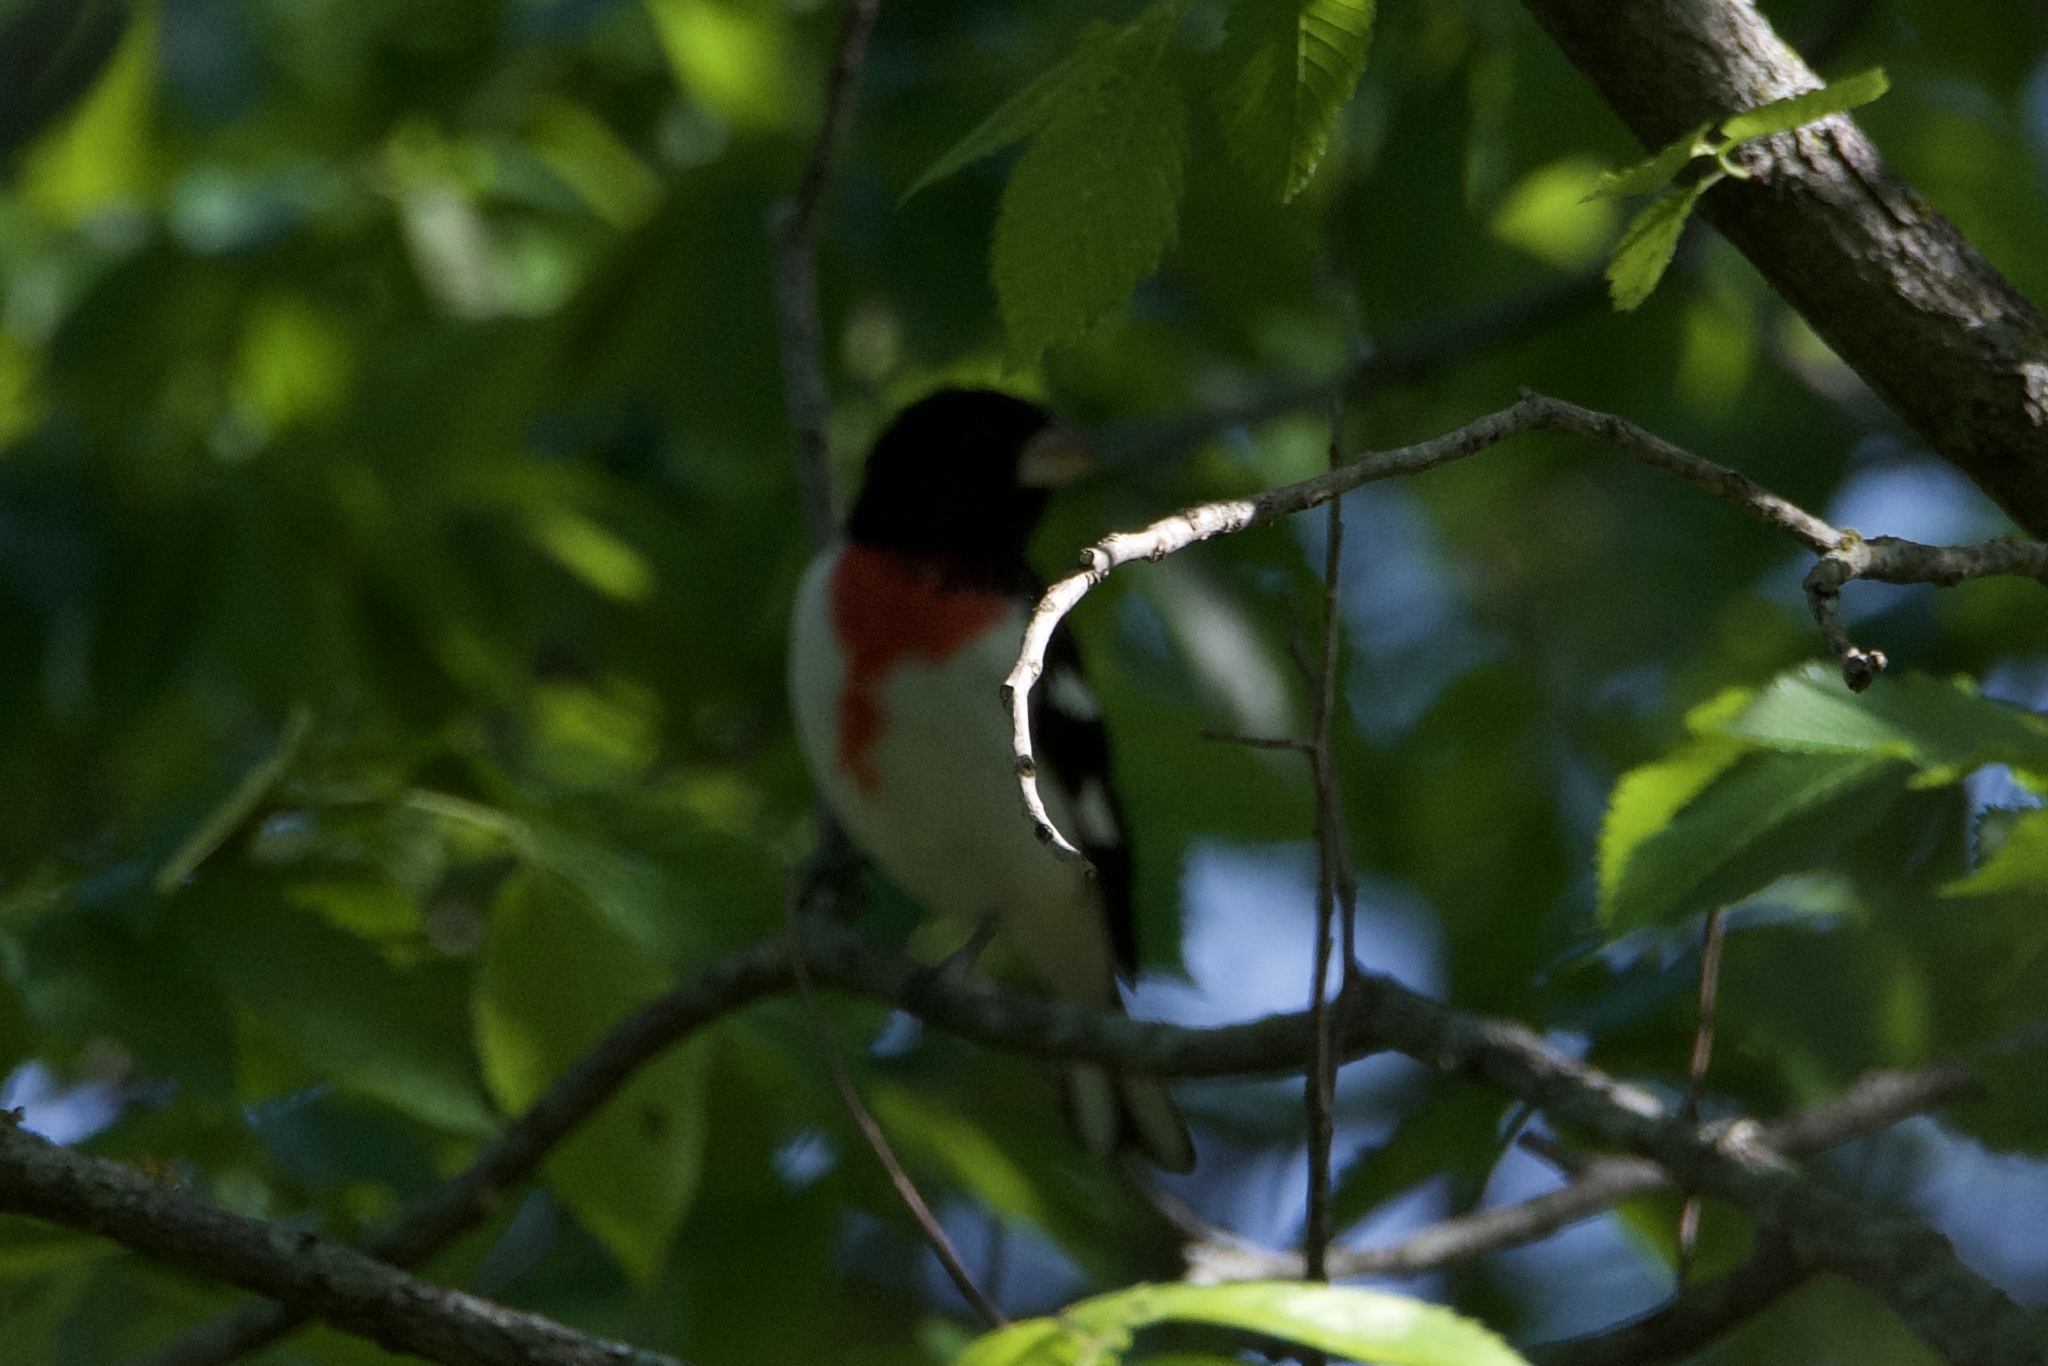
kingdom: Animalia
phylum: Chordata
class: Aves
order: Passeriformes
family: Cardinalidae
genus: Pheucticus
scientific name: Pheucticus ludovicianus
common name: Rose-breasted grosbeak
